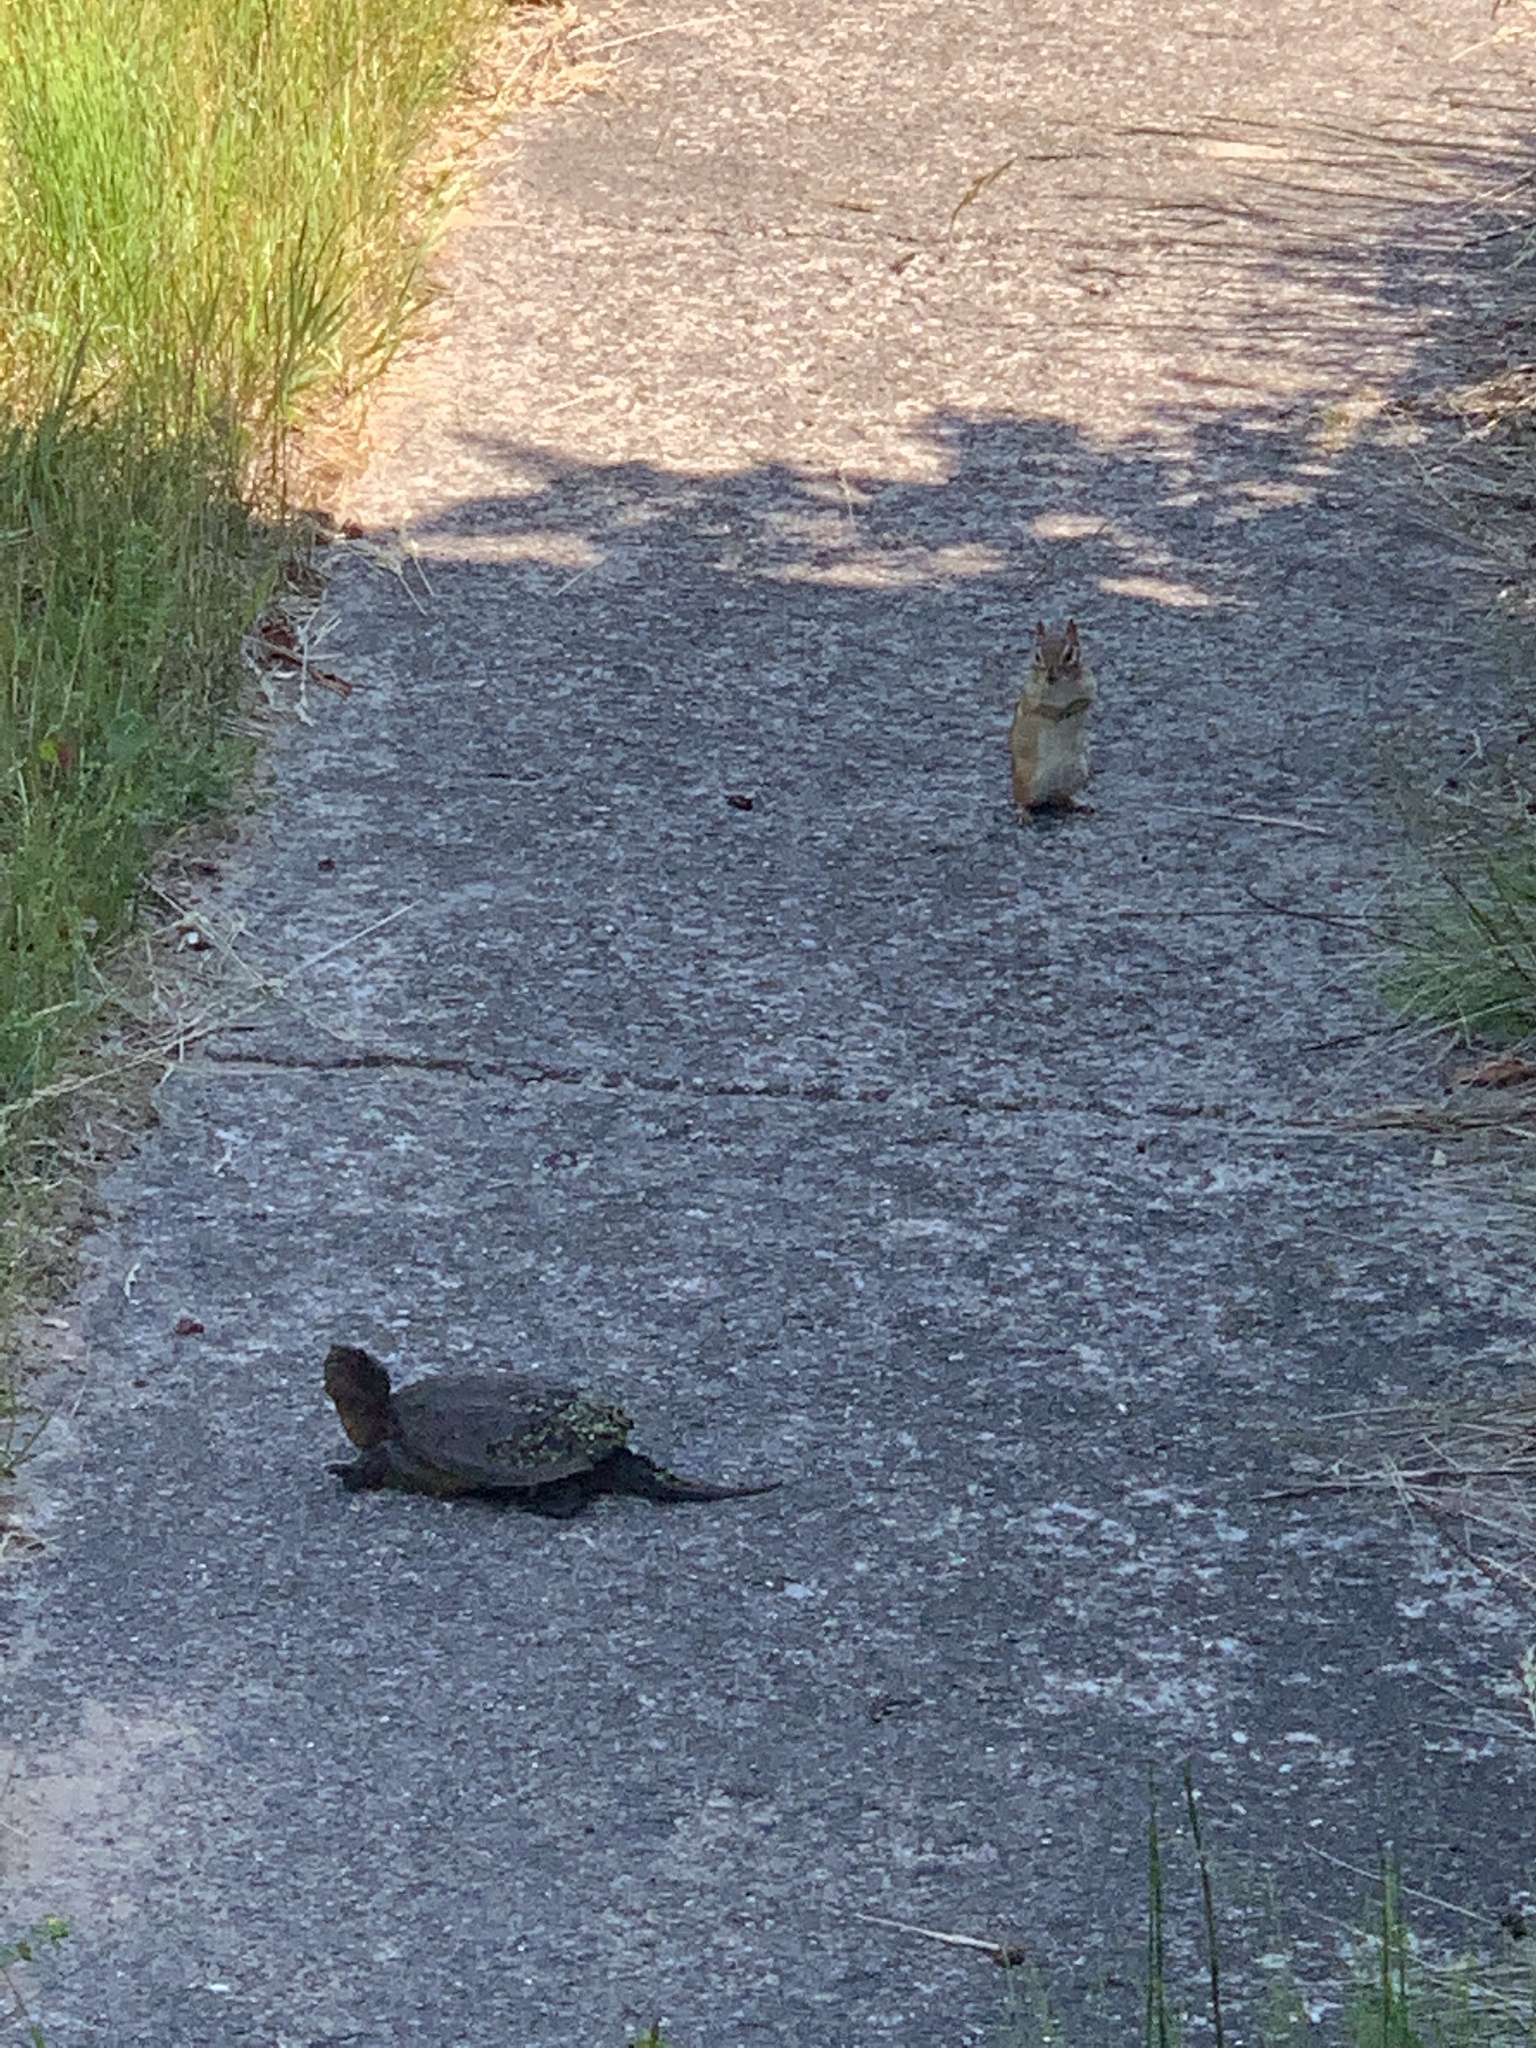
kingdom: Animalia
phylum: Chordata
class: Testudines
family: Chelydridae
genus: Chelydra
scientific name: Chelydra serpentina
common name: Common snapping turtle
